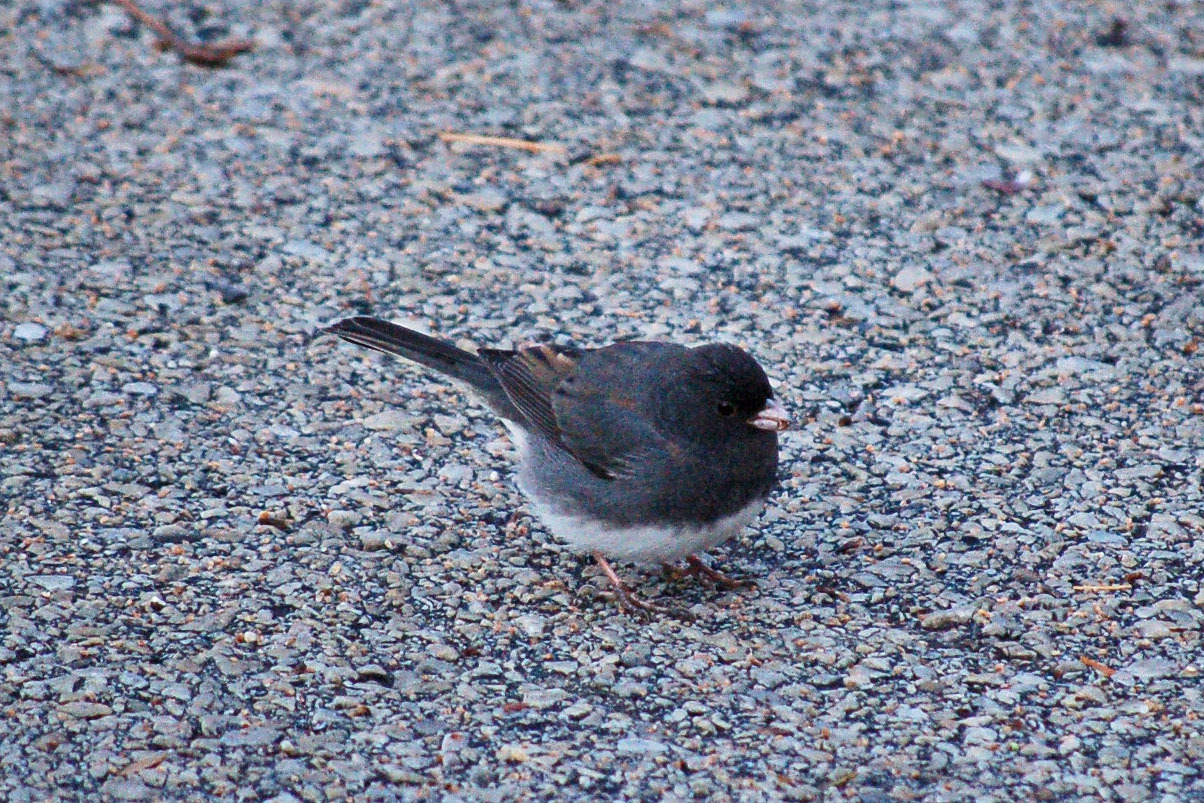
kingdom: Animalia
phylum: Chordata
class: Aves
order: Passeriformes
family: Passerellidae
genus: Junco
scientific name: Junco hyemalis
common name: Dark-eyed junco
